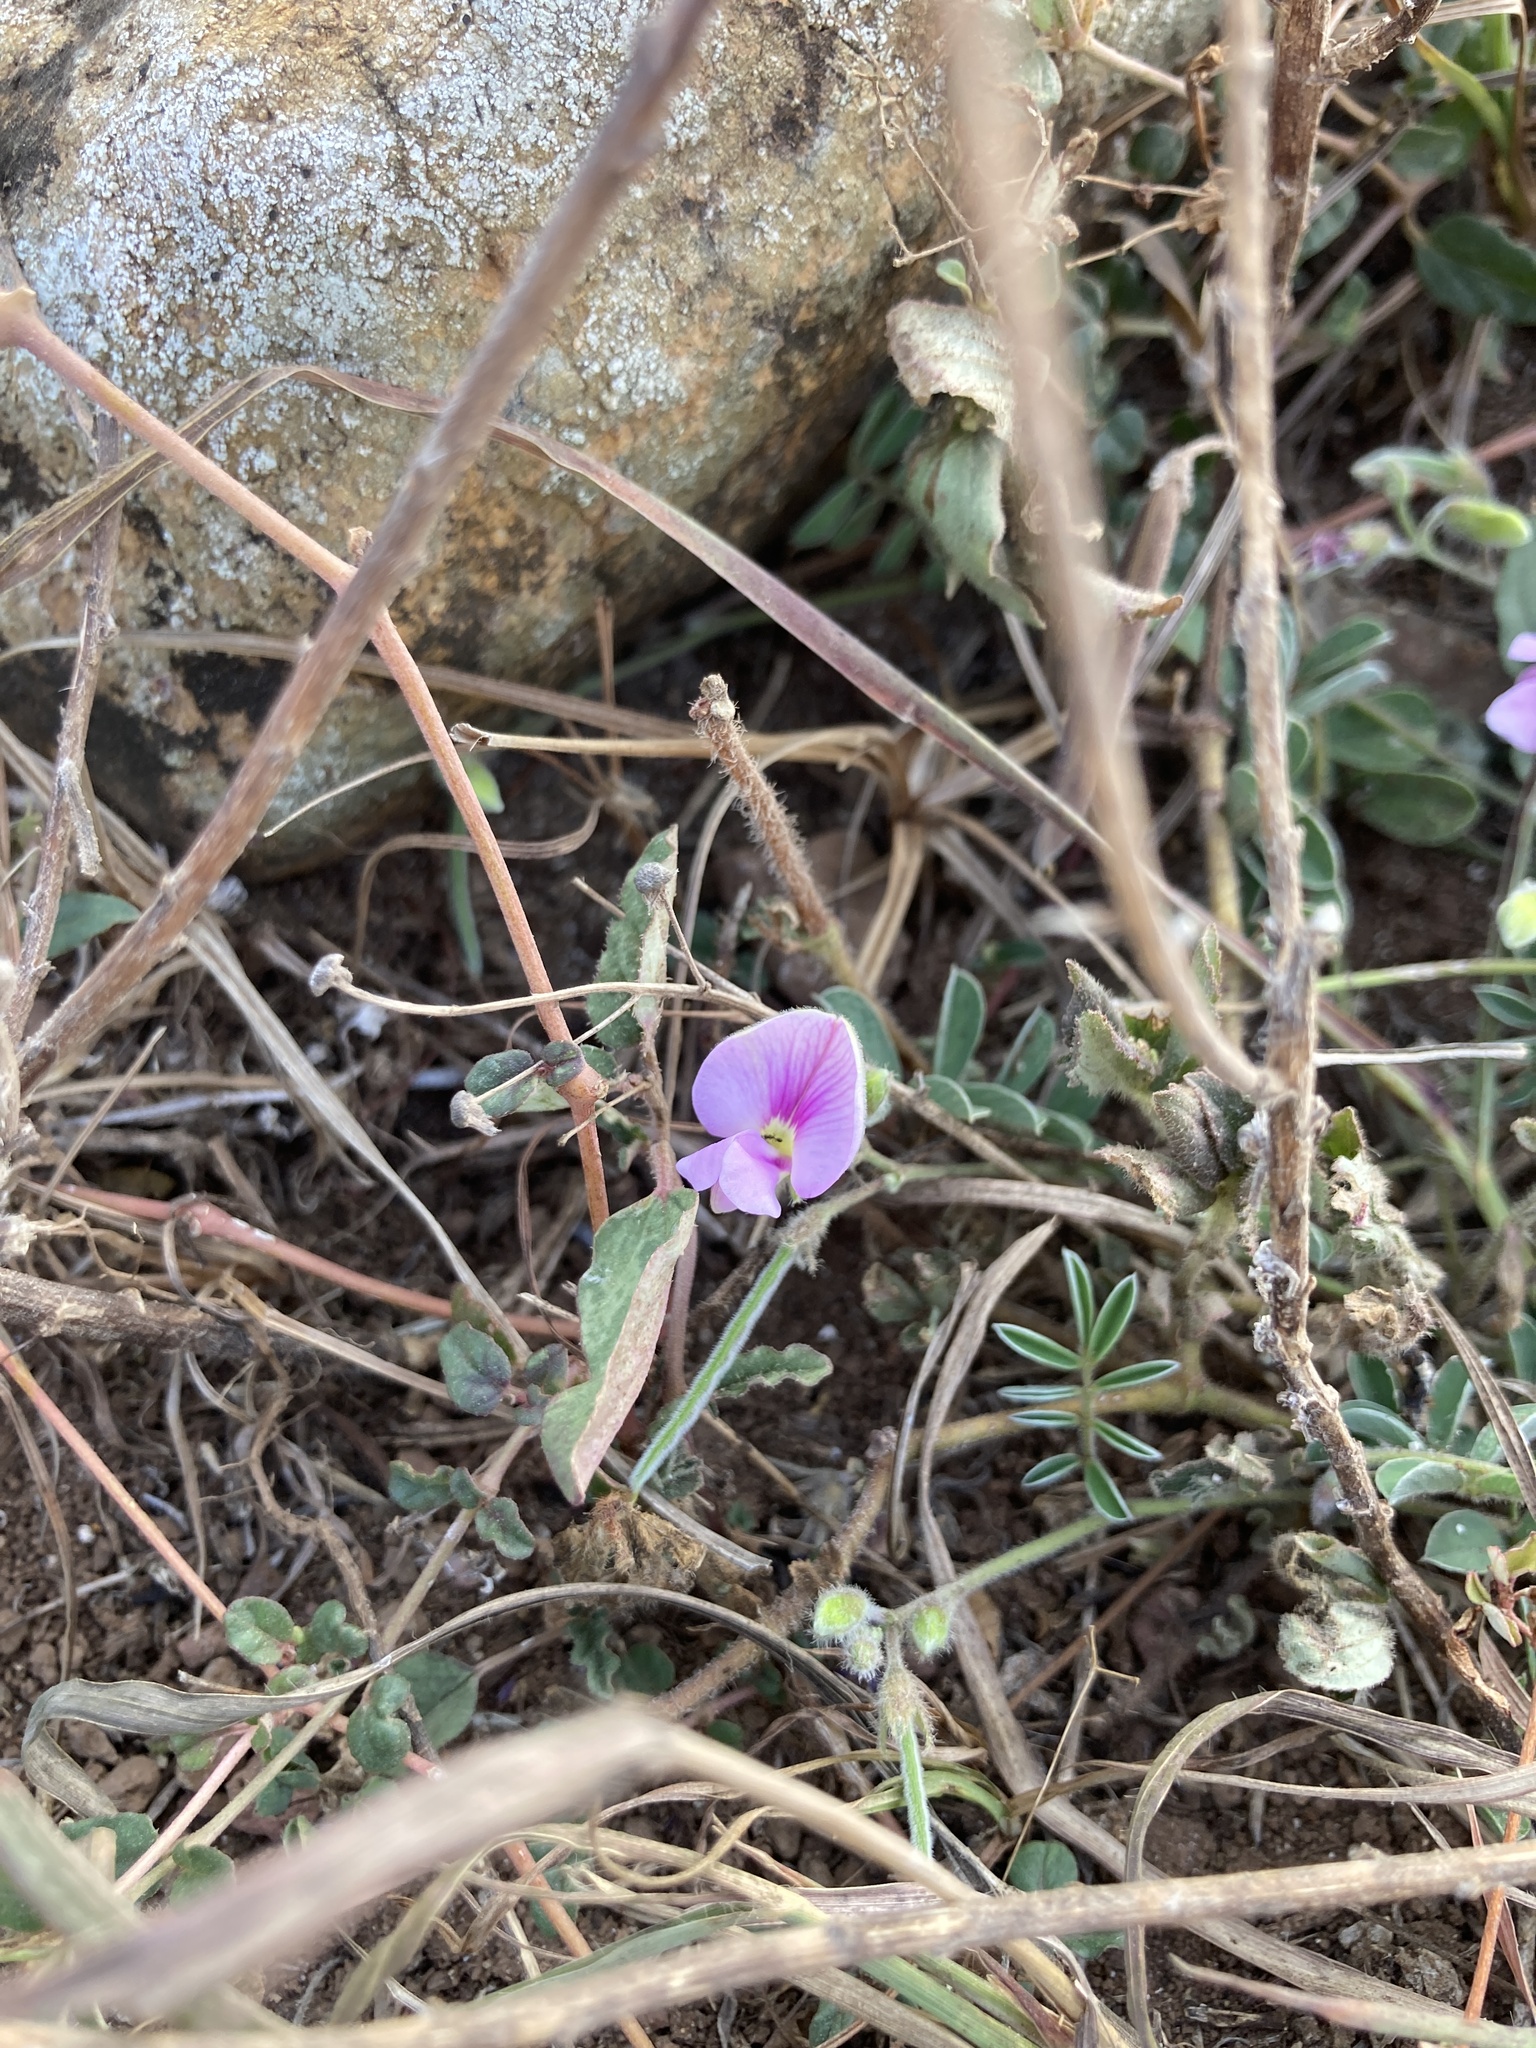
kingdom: Plantae
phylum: Tracheophyta
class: Magnoliopsida
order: Fabales
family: Fabaceae
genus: Tephrosia
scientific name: Tephrosia obovata
